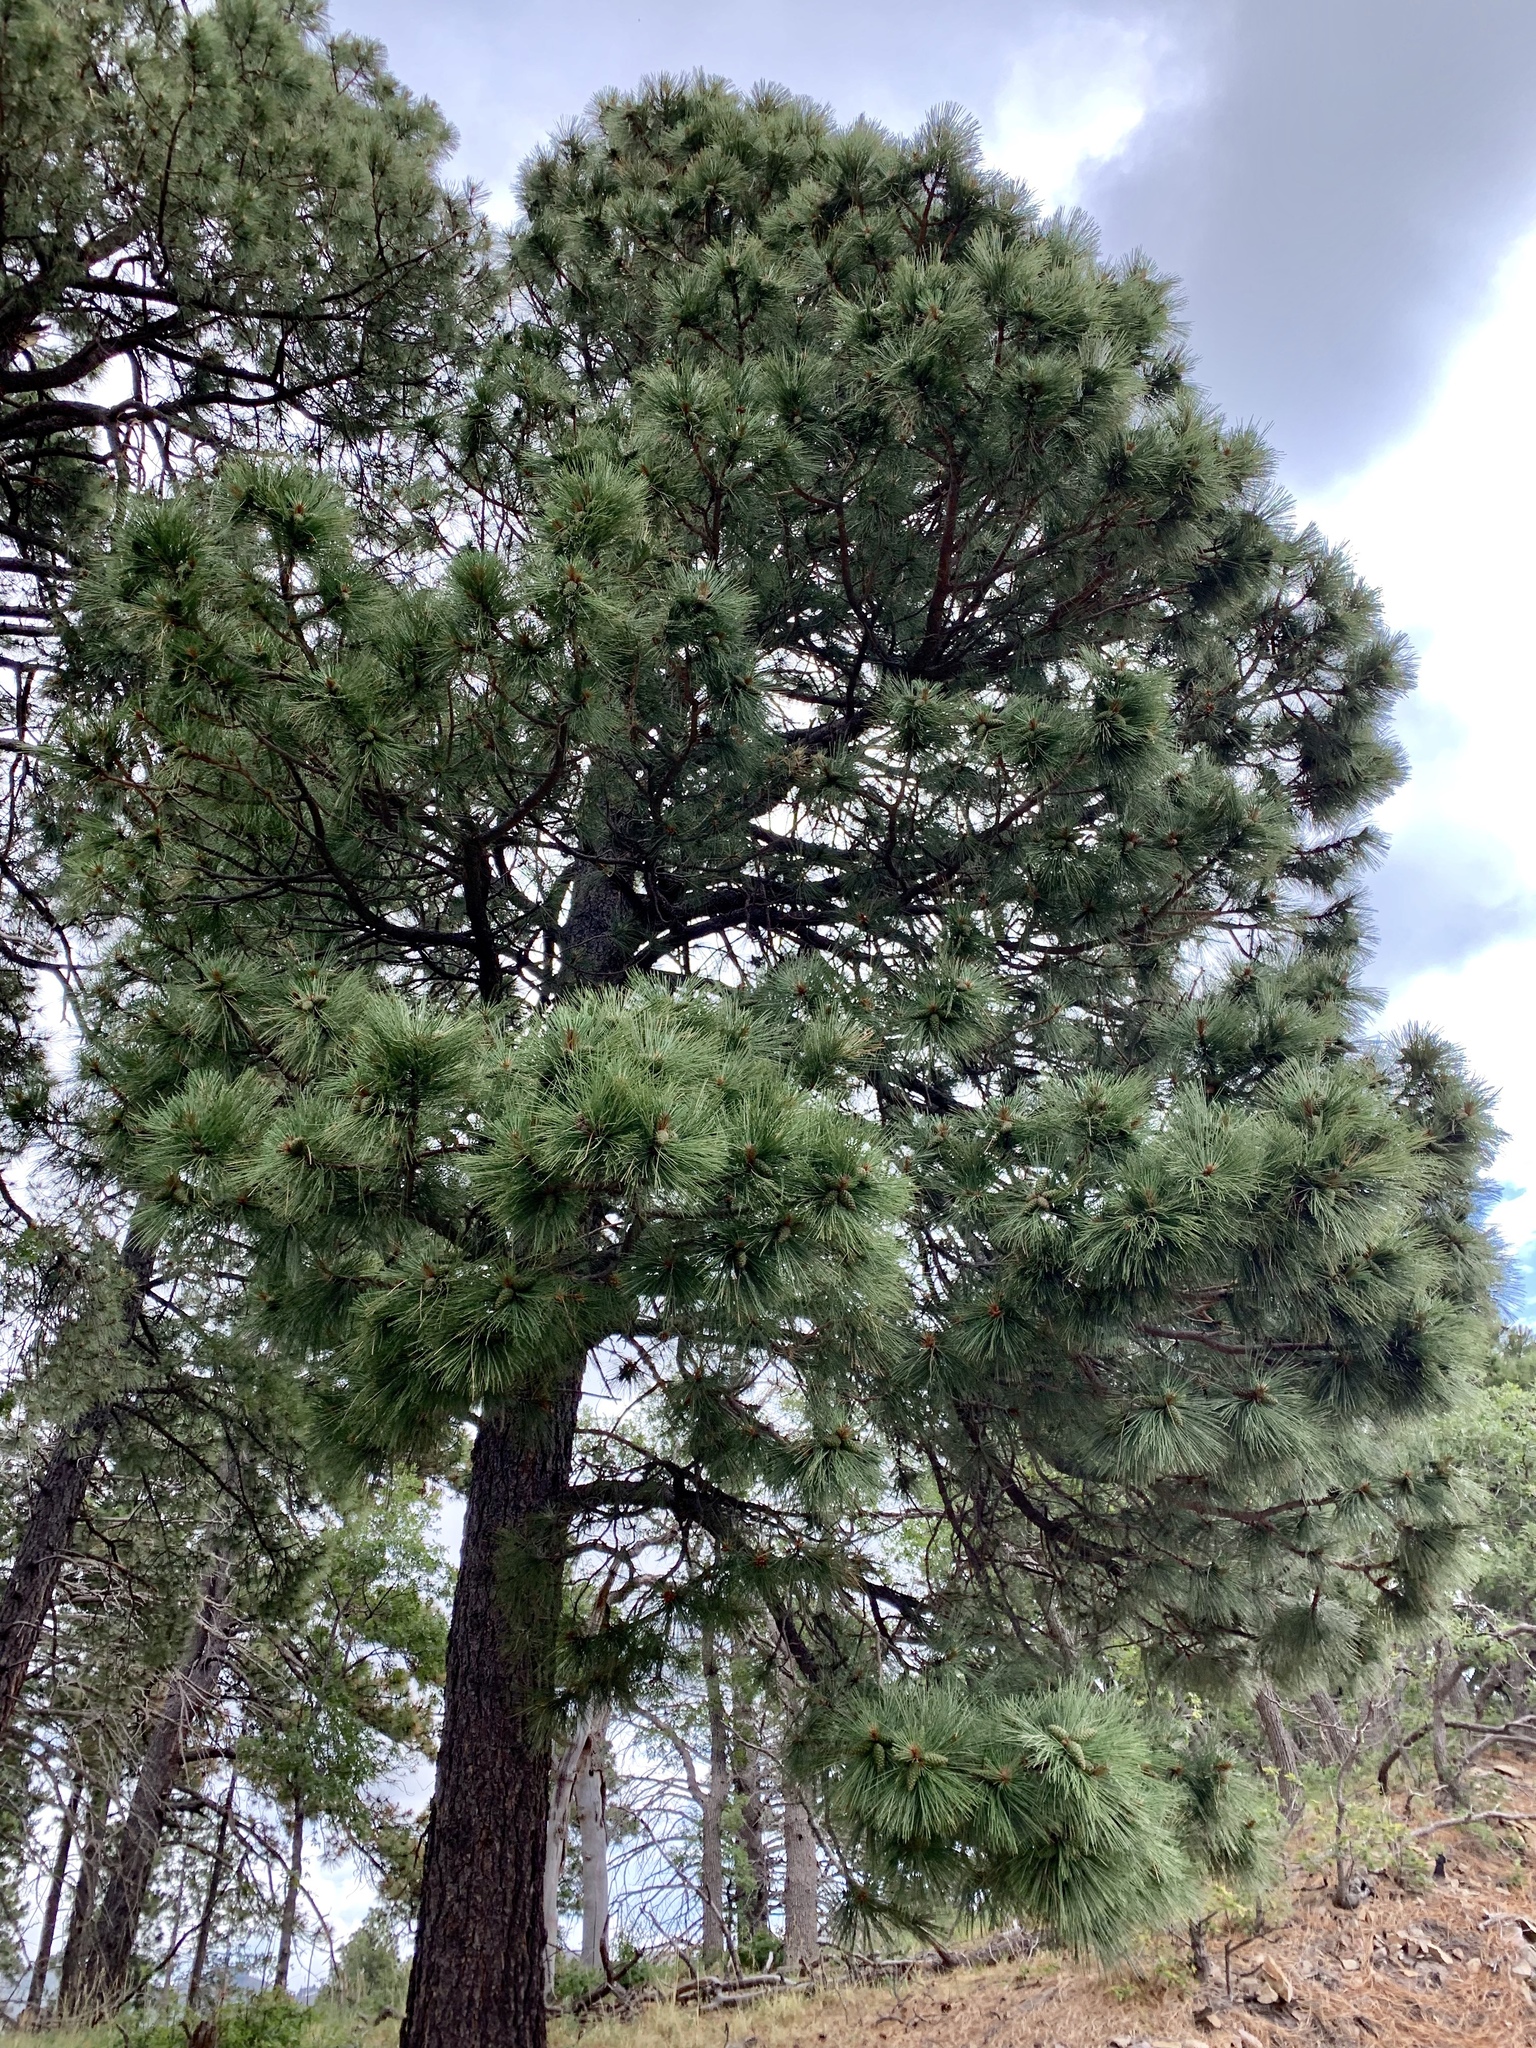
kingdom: Plantae
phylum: Tracheophyta
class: Pinopsida
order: Pinales
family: Pinaceae
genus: Pinus
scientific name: Pinus ponderosa
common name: Western yellow-pine
